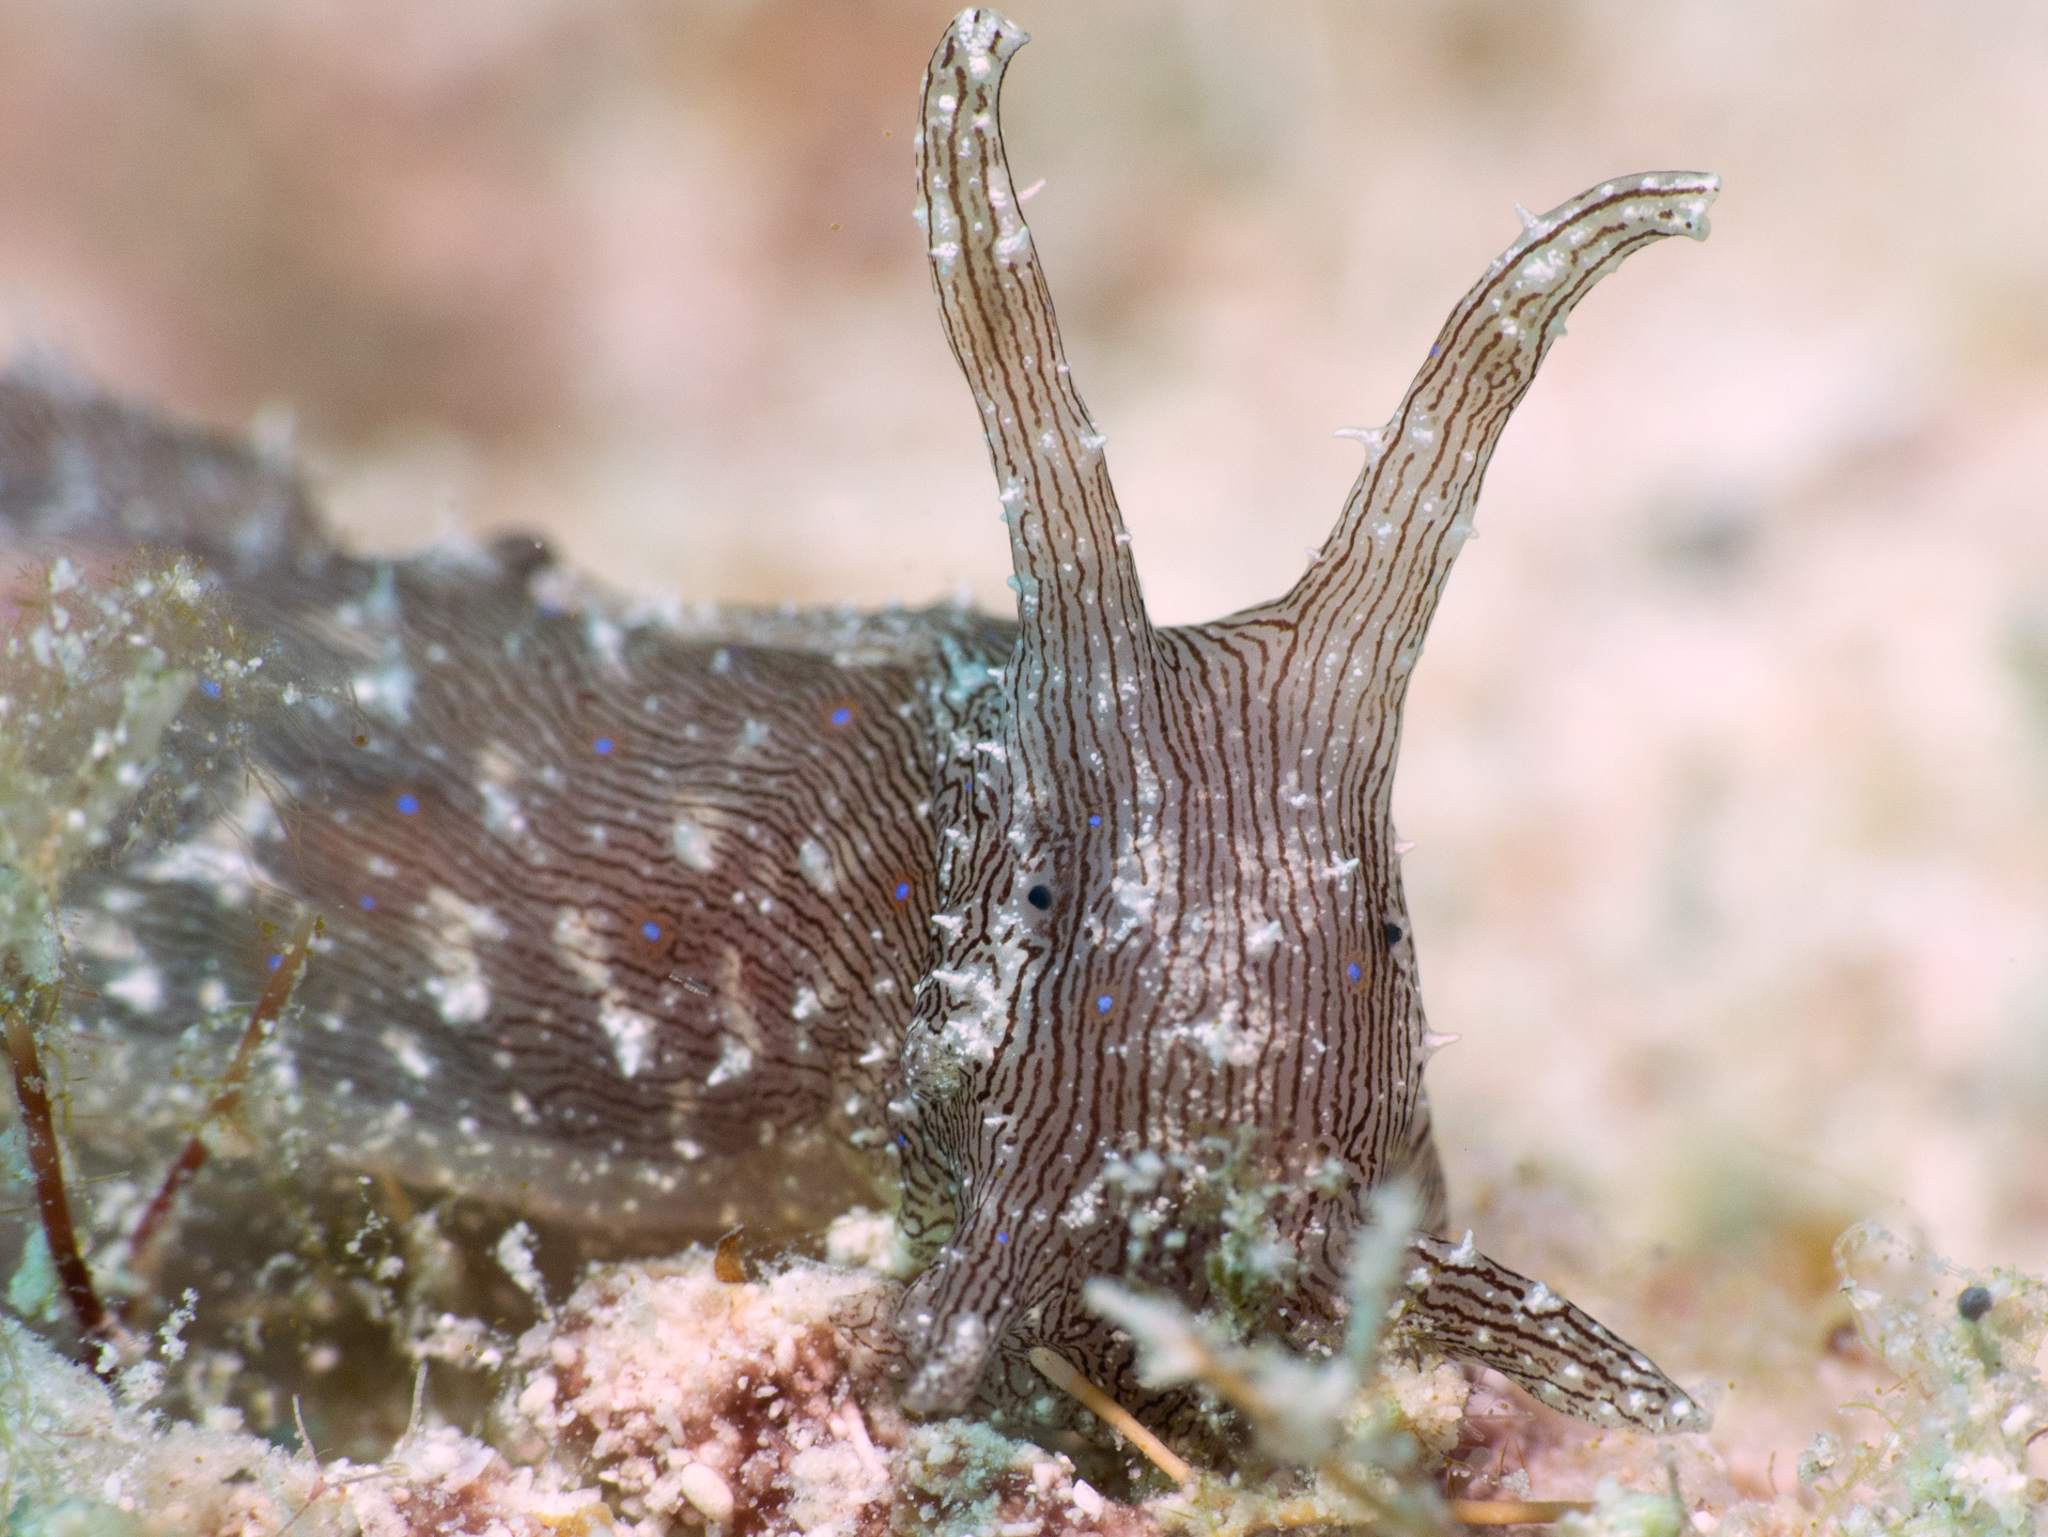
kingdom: Animalia
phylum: Mollusca
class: Gastropoda
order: Aplysiida
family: Aplysiidae
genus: Stylocheilus
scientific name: Stylocheilus polyomma
